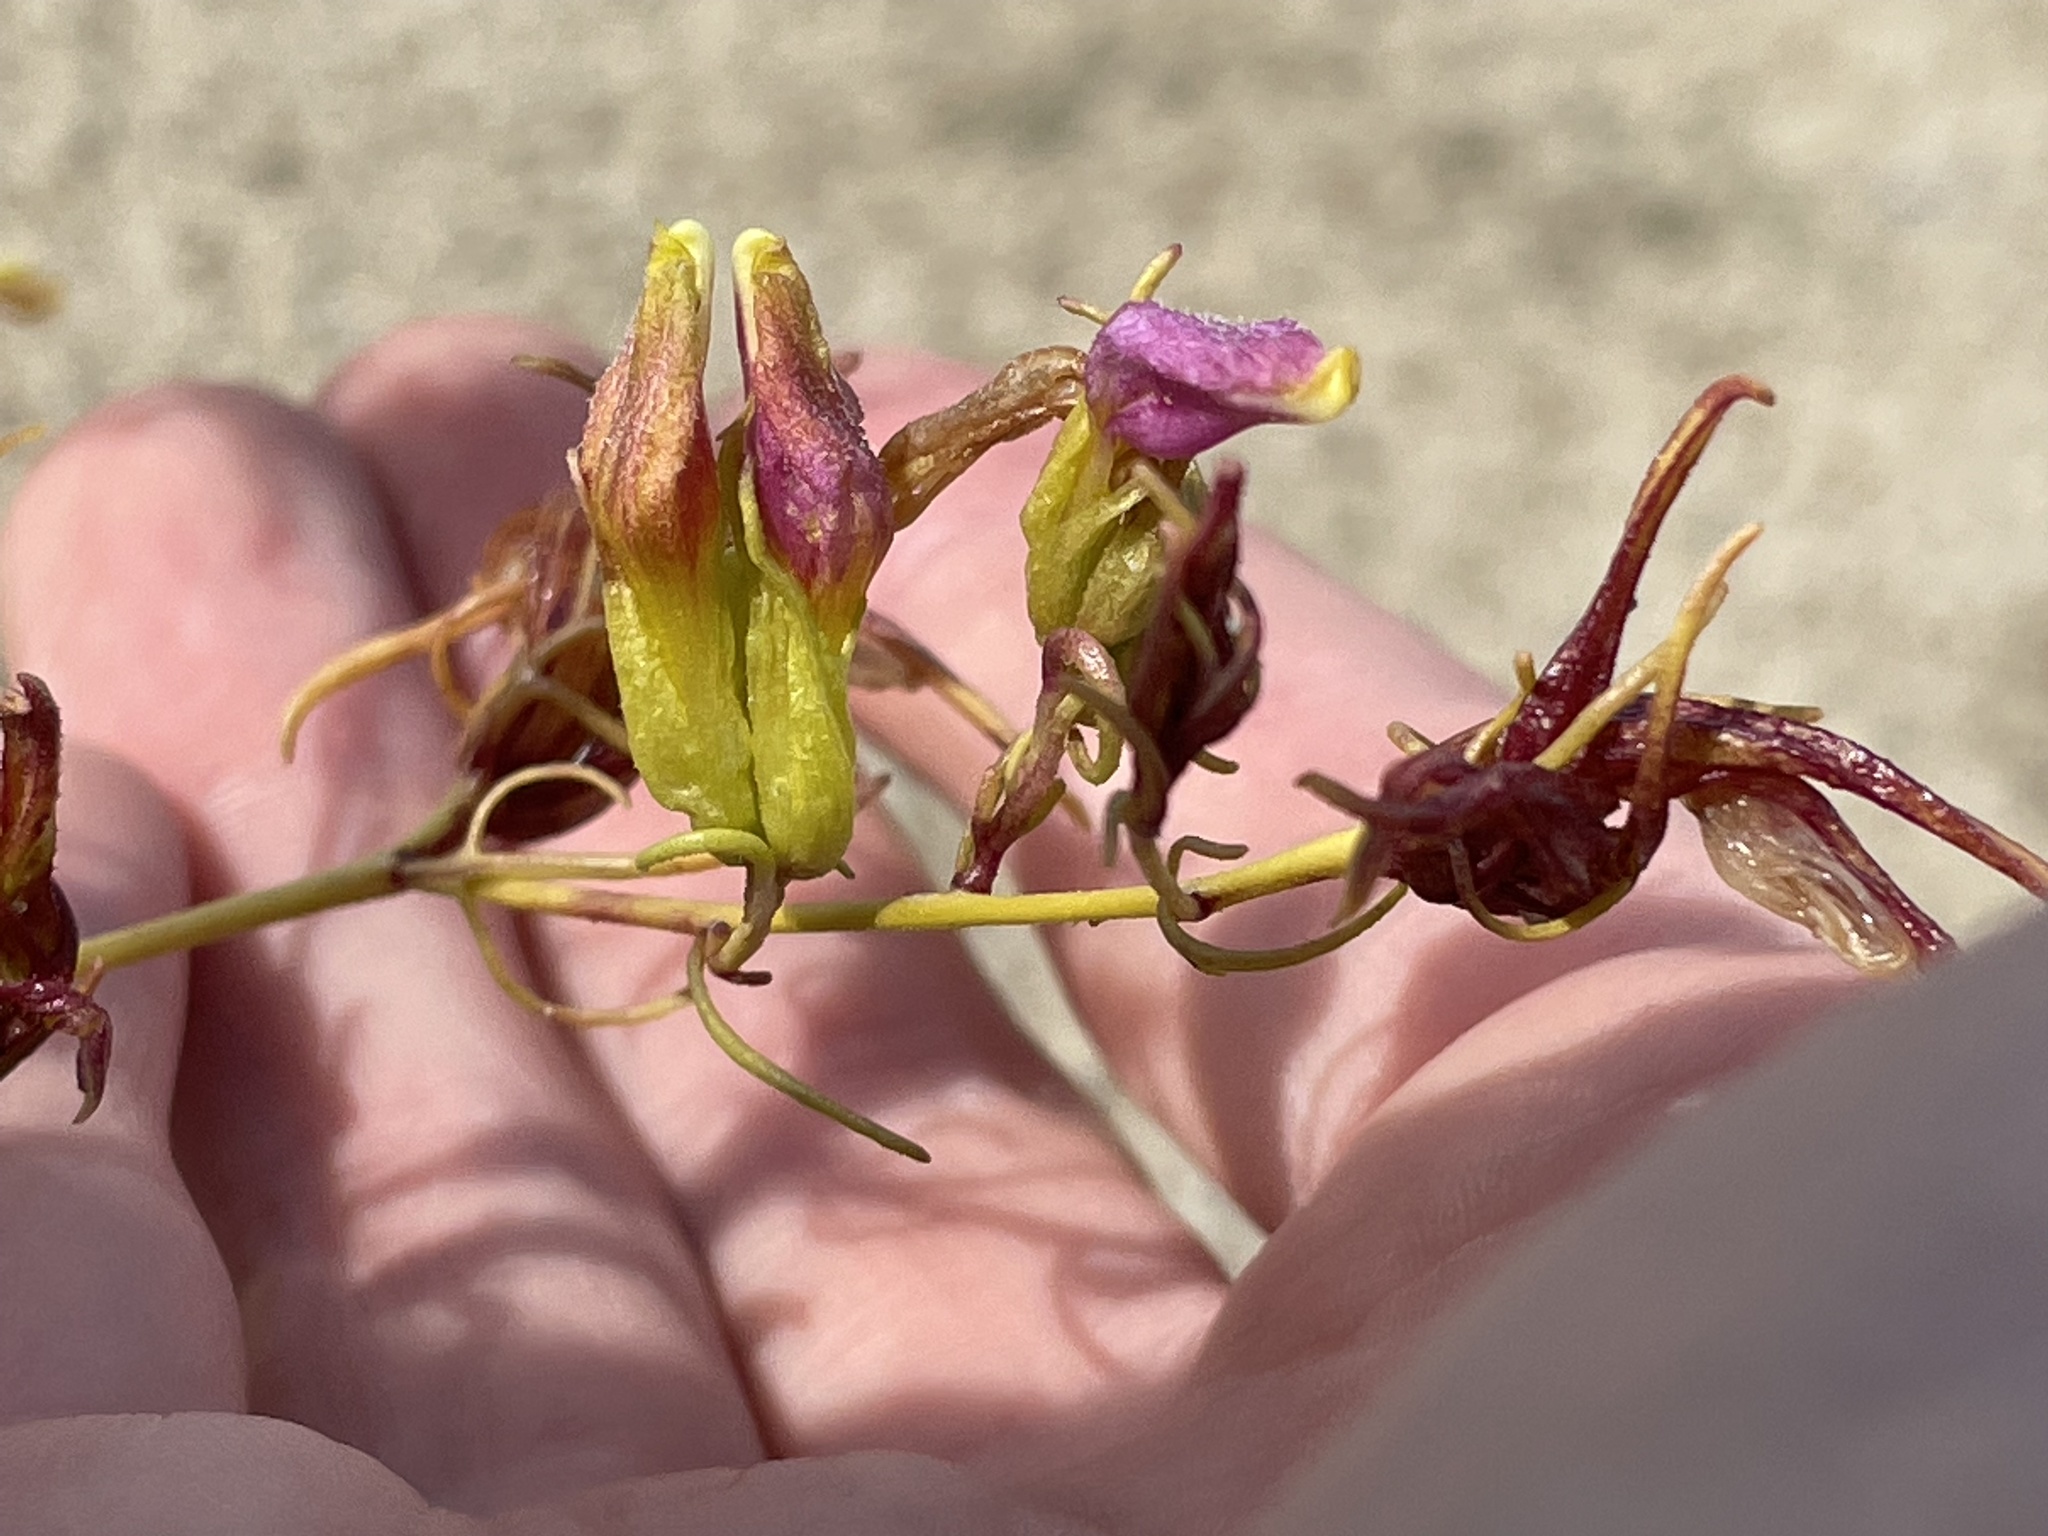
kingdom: Plantae
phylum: Tracheophyta
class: Magnoliopsida
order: Lamiales
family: Orobanchaceae
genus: Cordylanthus
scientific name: Cordylanthus wrightii
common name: Wright's birdsbeak
